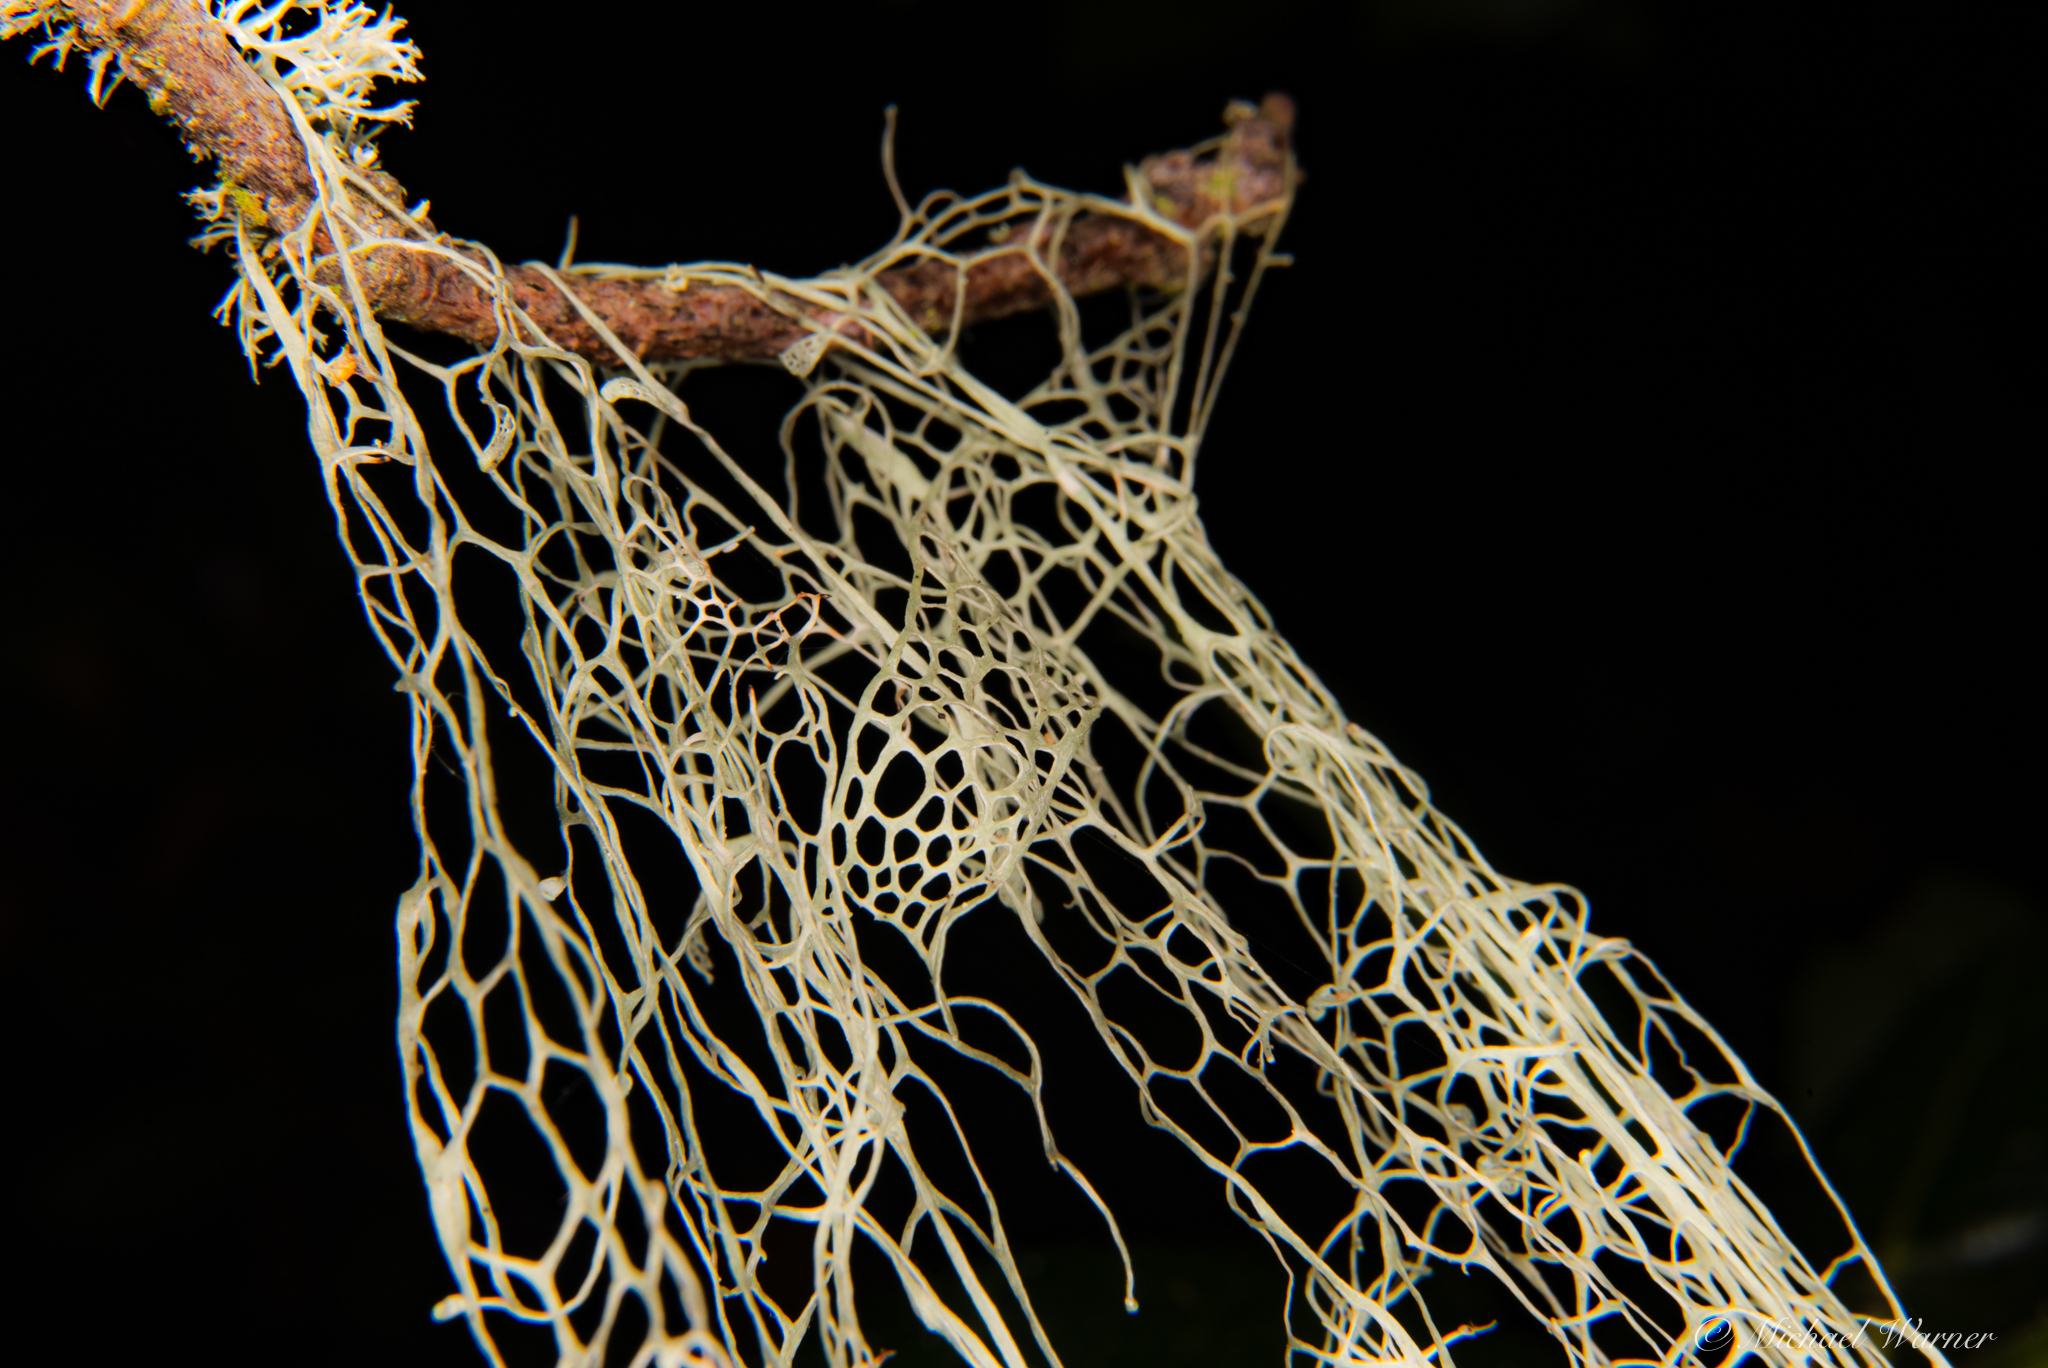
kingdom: Fungi
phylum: Ascomycota
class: Lecanoromycetes
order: Lecanorales
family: Ramalinaceae
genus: Ramalina
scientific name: Ramalina menziesii
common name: Lace lichen
